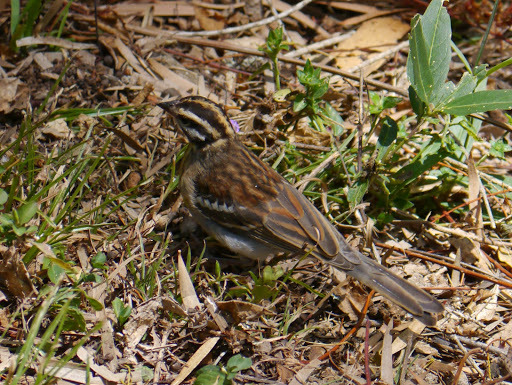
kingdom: Animalia
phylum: Chordata
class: Aves
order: Passeriformes
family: Emberizidae
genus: Emberiza
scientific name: Emberiza flaviventris
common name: Golden-breasted bunting
